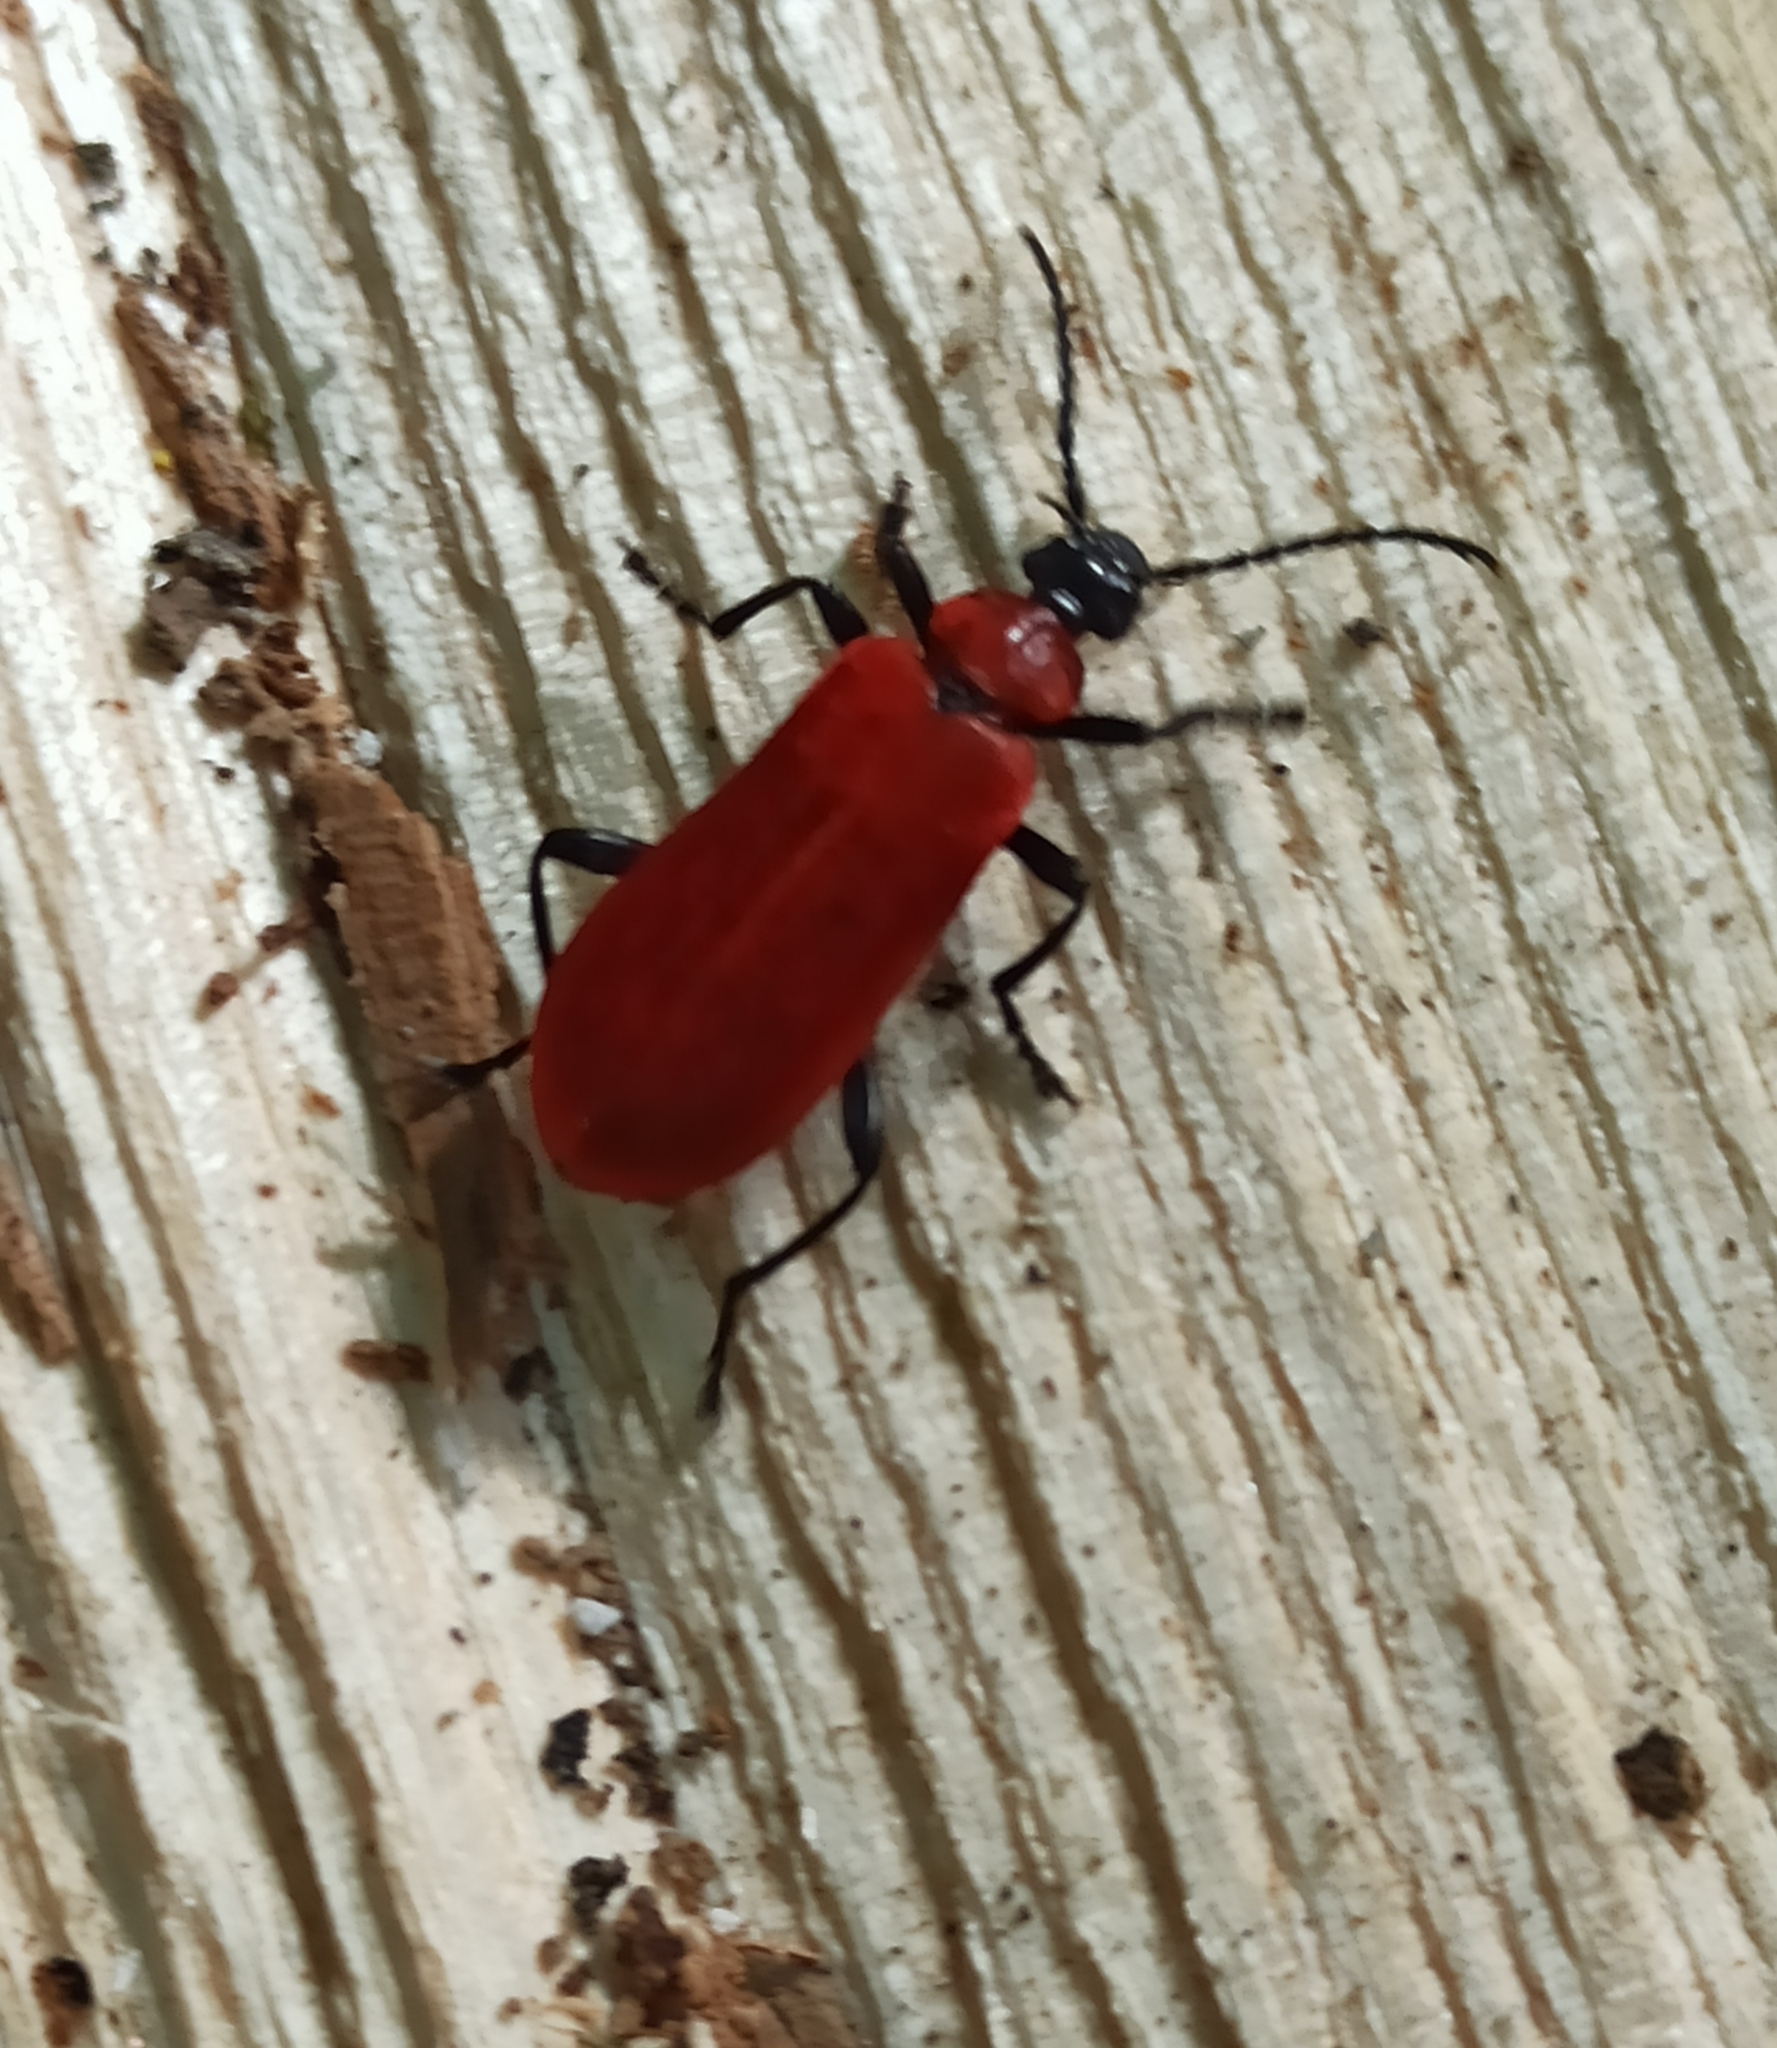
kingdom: Animalia
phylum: Arthropoda
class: Insecta
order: Coleoptera
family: Pyrochroidae
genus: Pyrochroa
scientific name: Pyrochroa coccinea
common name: Black-headed cardinal beetle
